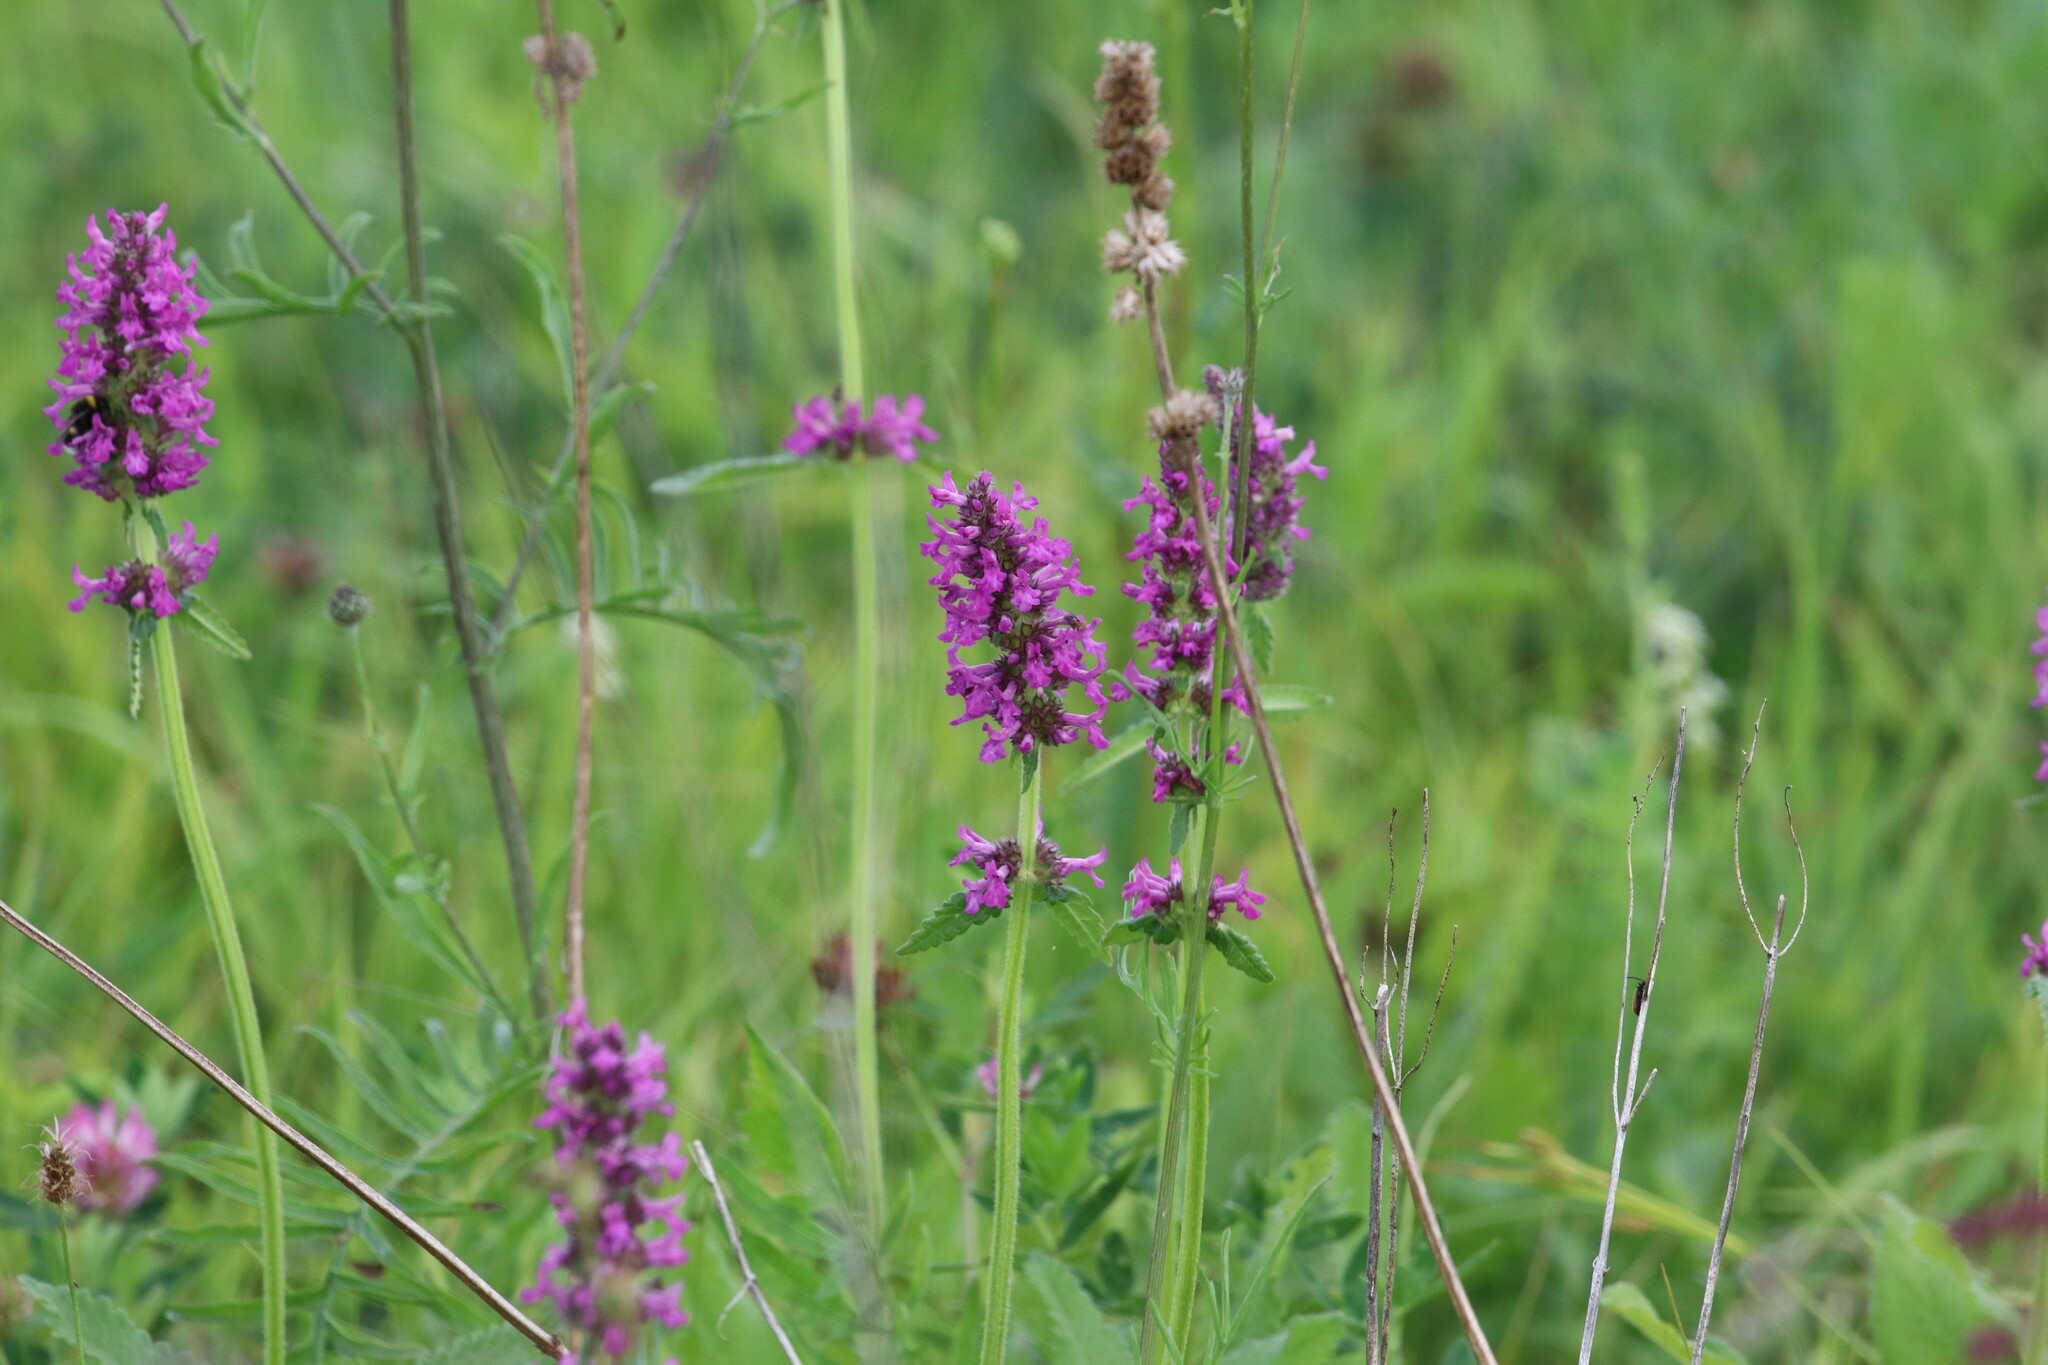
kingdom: Plantae
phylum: Tracheophyta
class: Magnoliopsida
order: Lamiales
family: Lamiaceae
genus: Betonica
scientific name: Betonica officinalis
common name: Bishop's-wort
